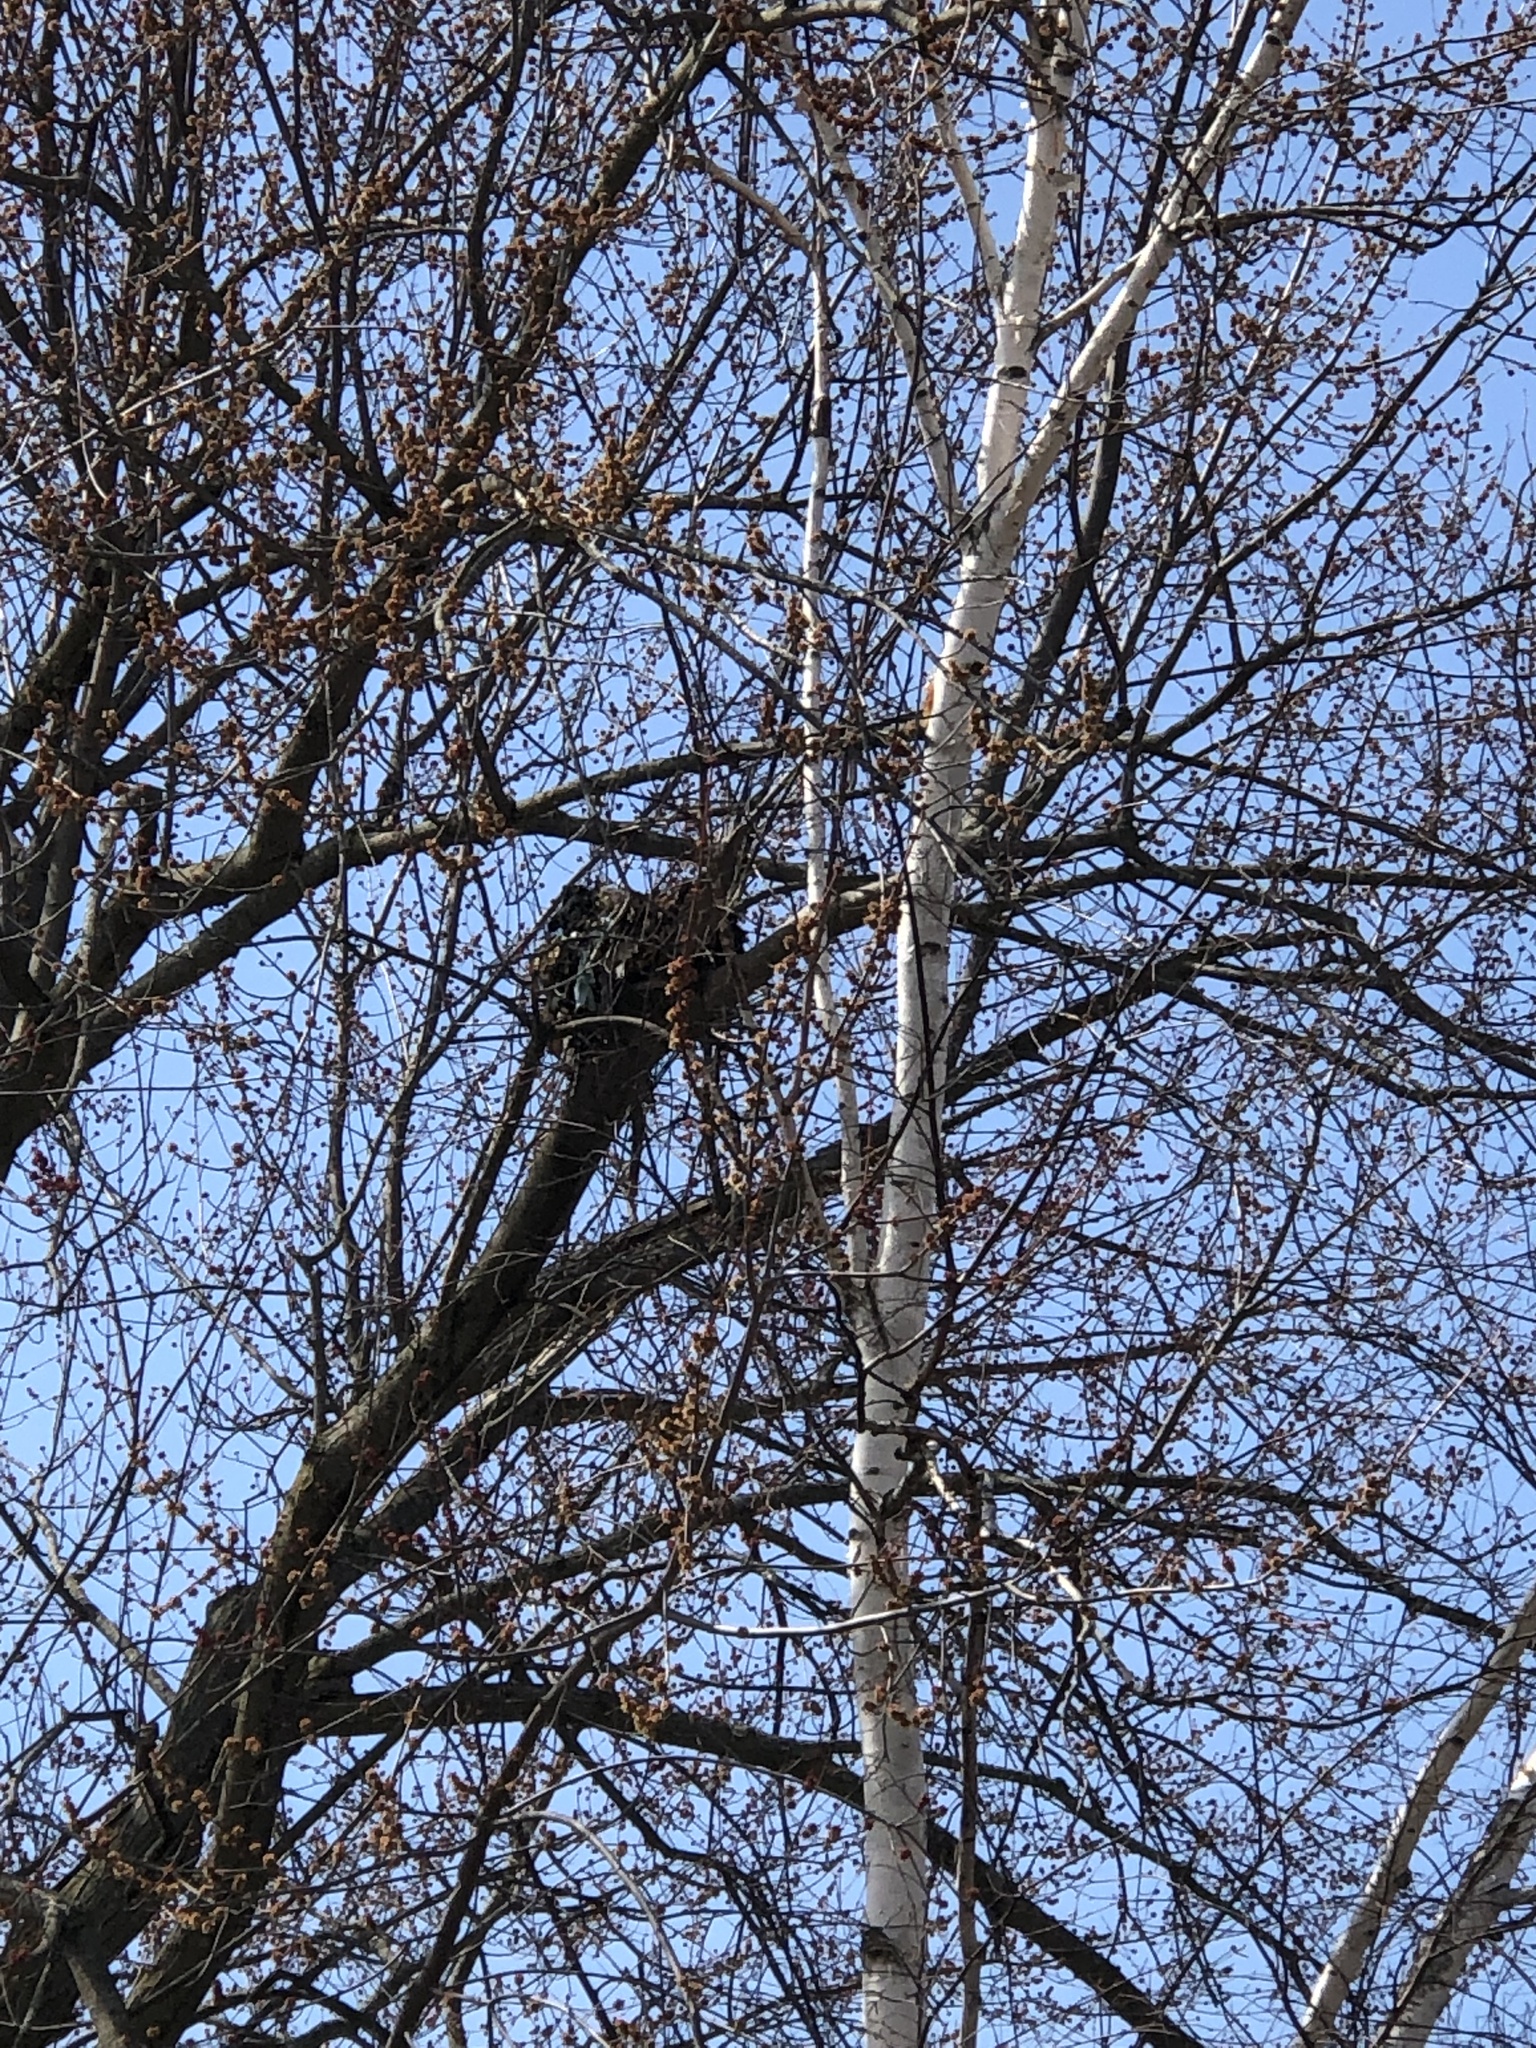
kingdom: Animalia
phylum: Chordata
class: Mammalia
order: Rodentia
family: Sciuridae
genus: Sciurus
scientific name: Sciurus carolinensis
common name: Eastern gray squirrel
